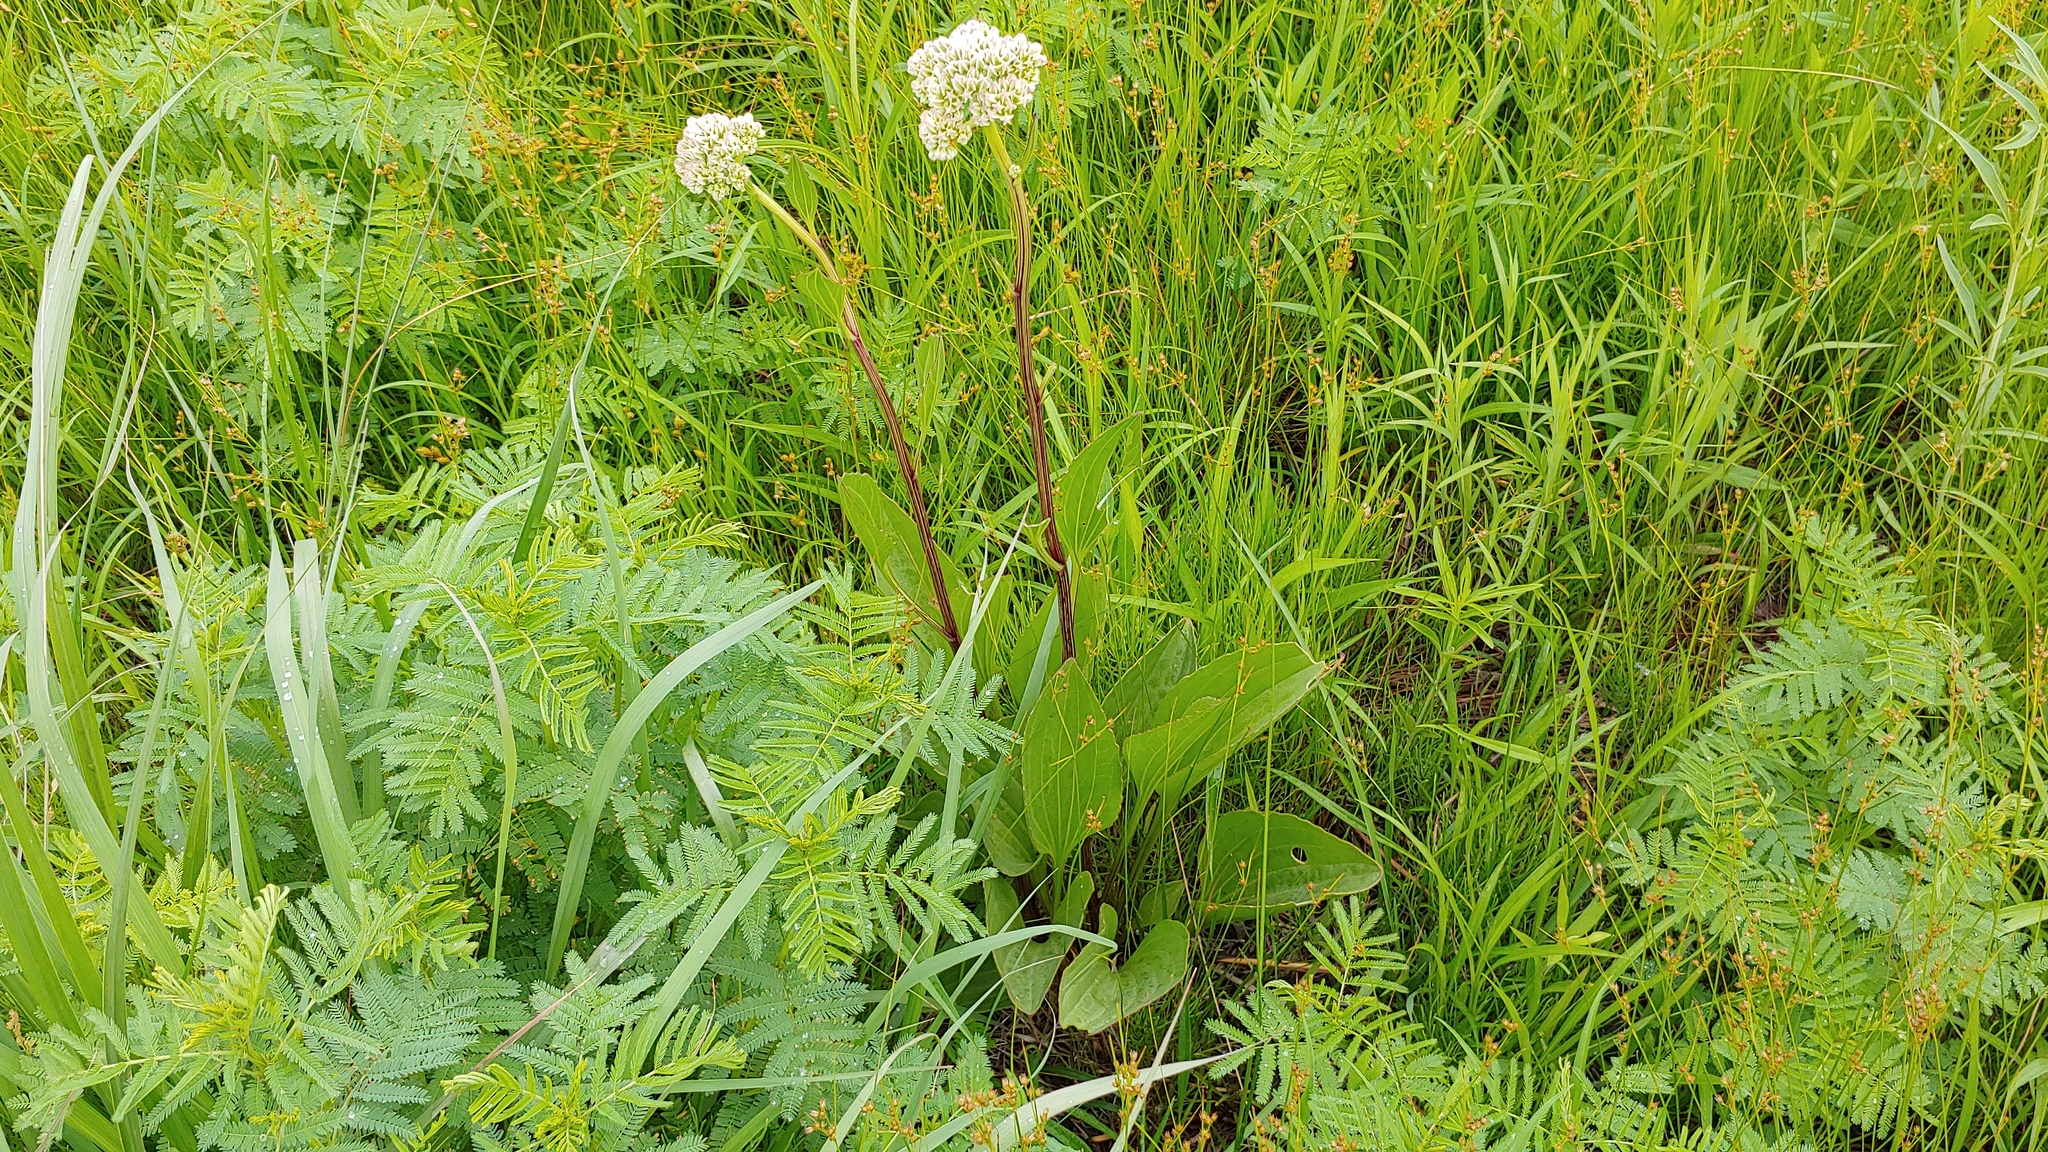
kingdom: Plantae
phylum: Tracheophyta
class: Magnoliopsida
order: Asterales
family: Asteraceae
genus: Arnoglossum
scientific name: Arnoglossum plantagineum
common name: Groove-stemmed indian-plantain
